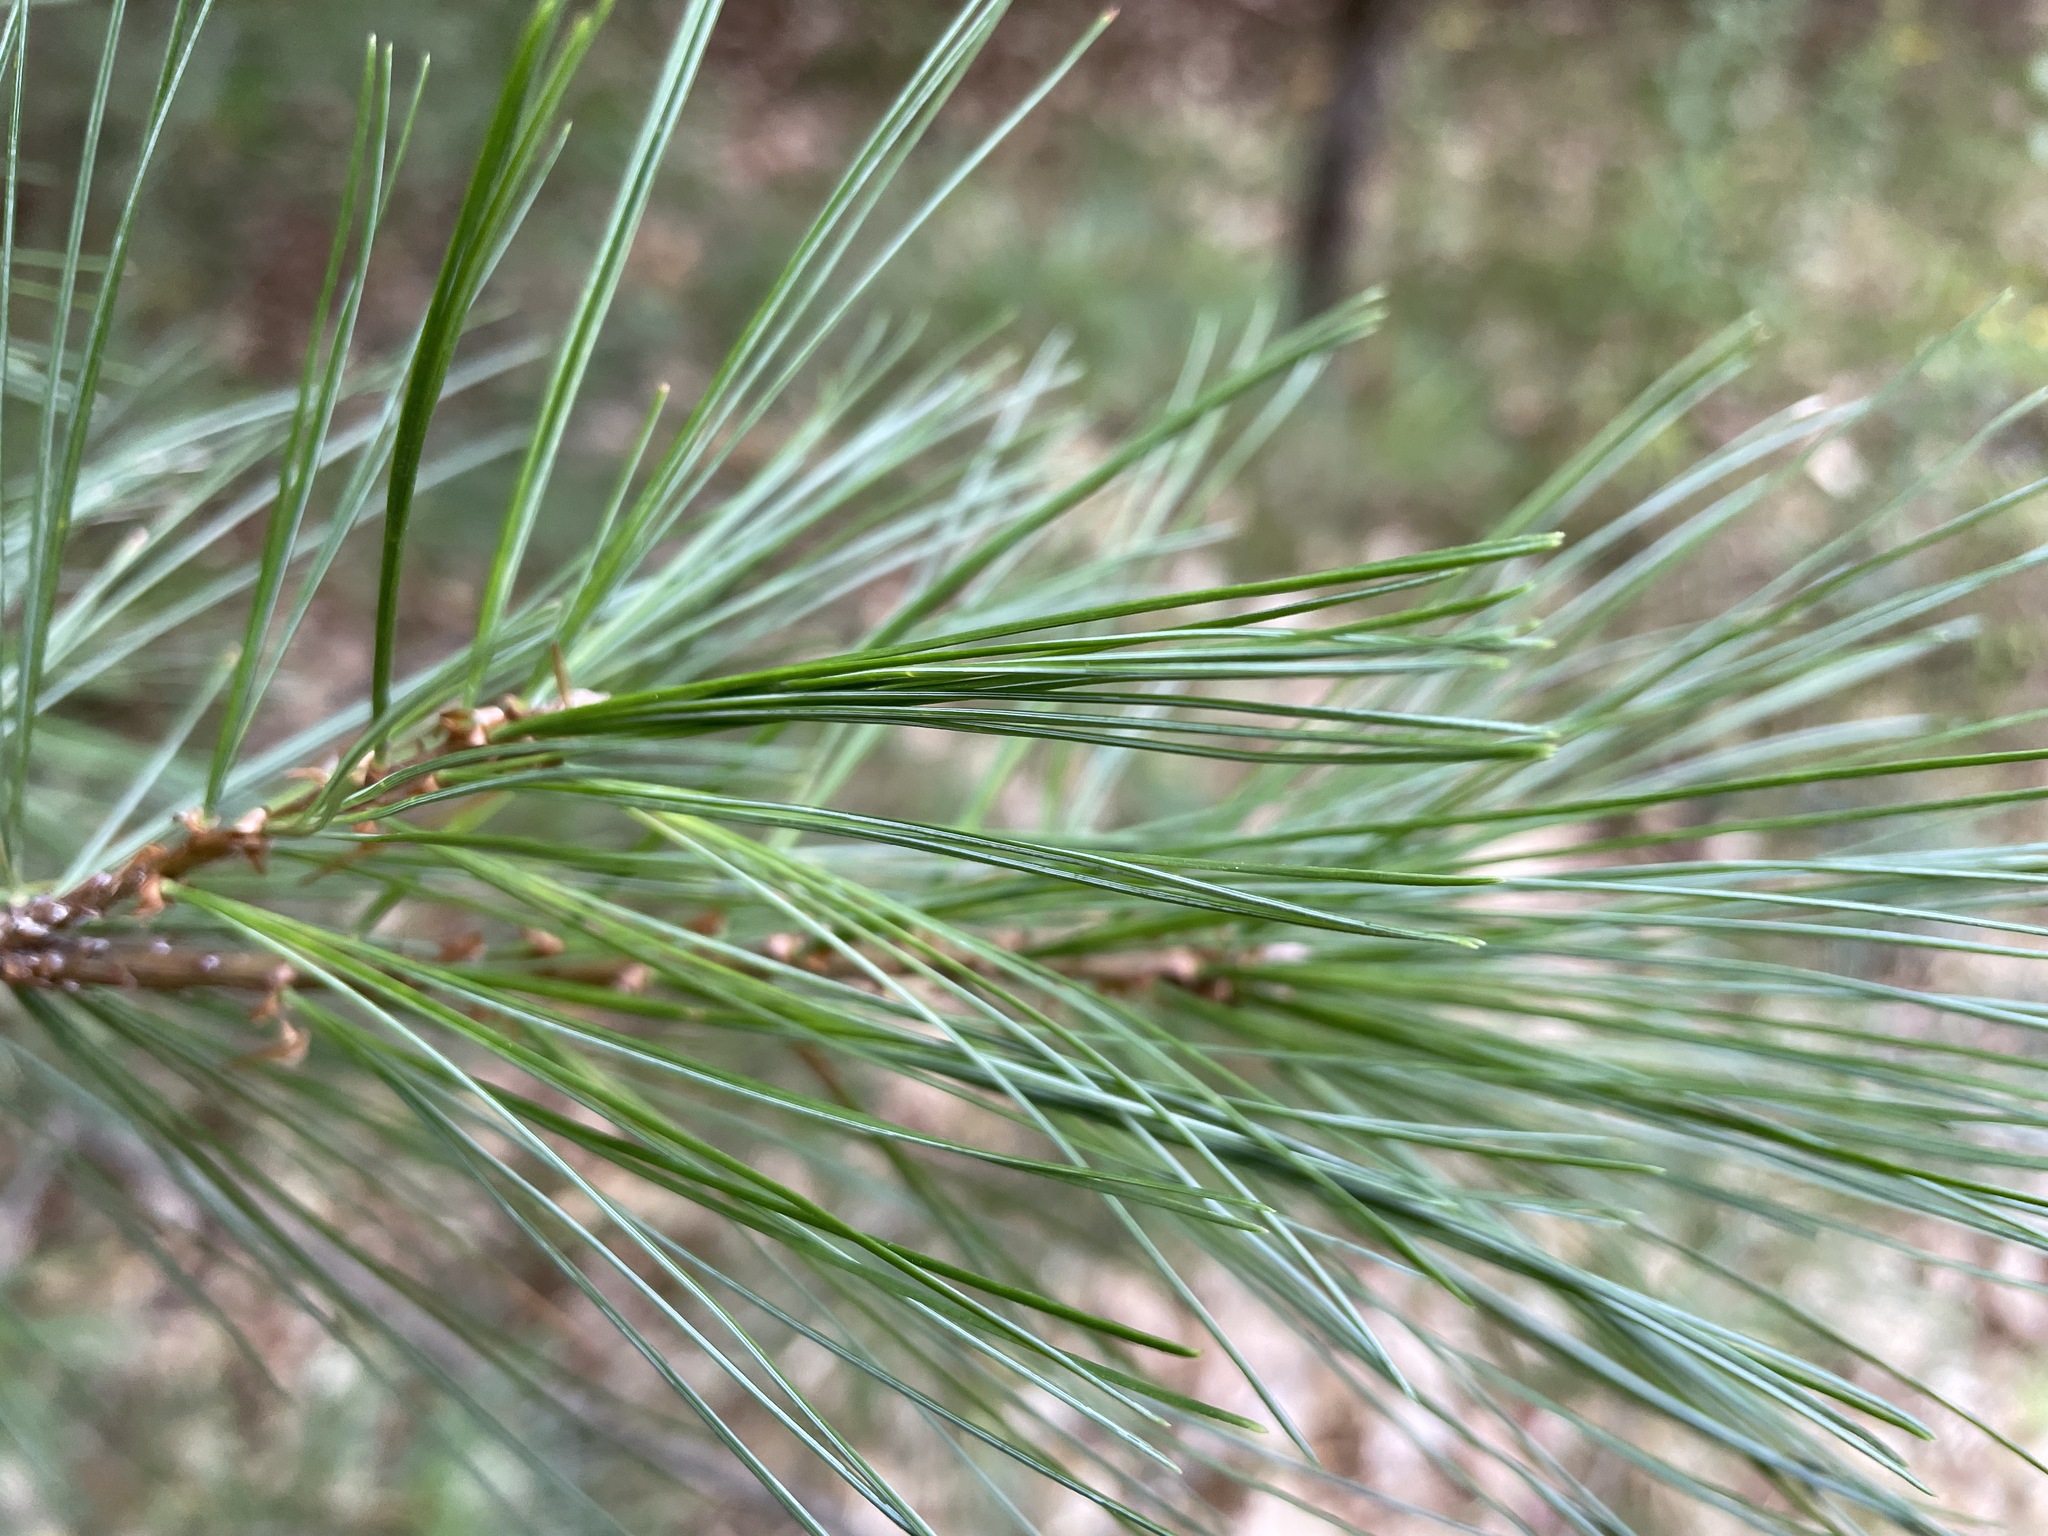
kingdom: Plantae
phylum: Tracheophyta
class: Pinopsida
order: Pinales
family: Pinaceae
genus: Pinus
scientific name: Pinus strobus
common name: Weymouth pine
